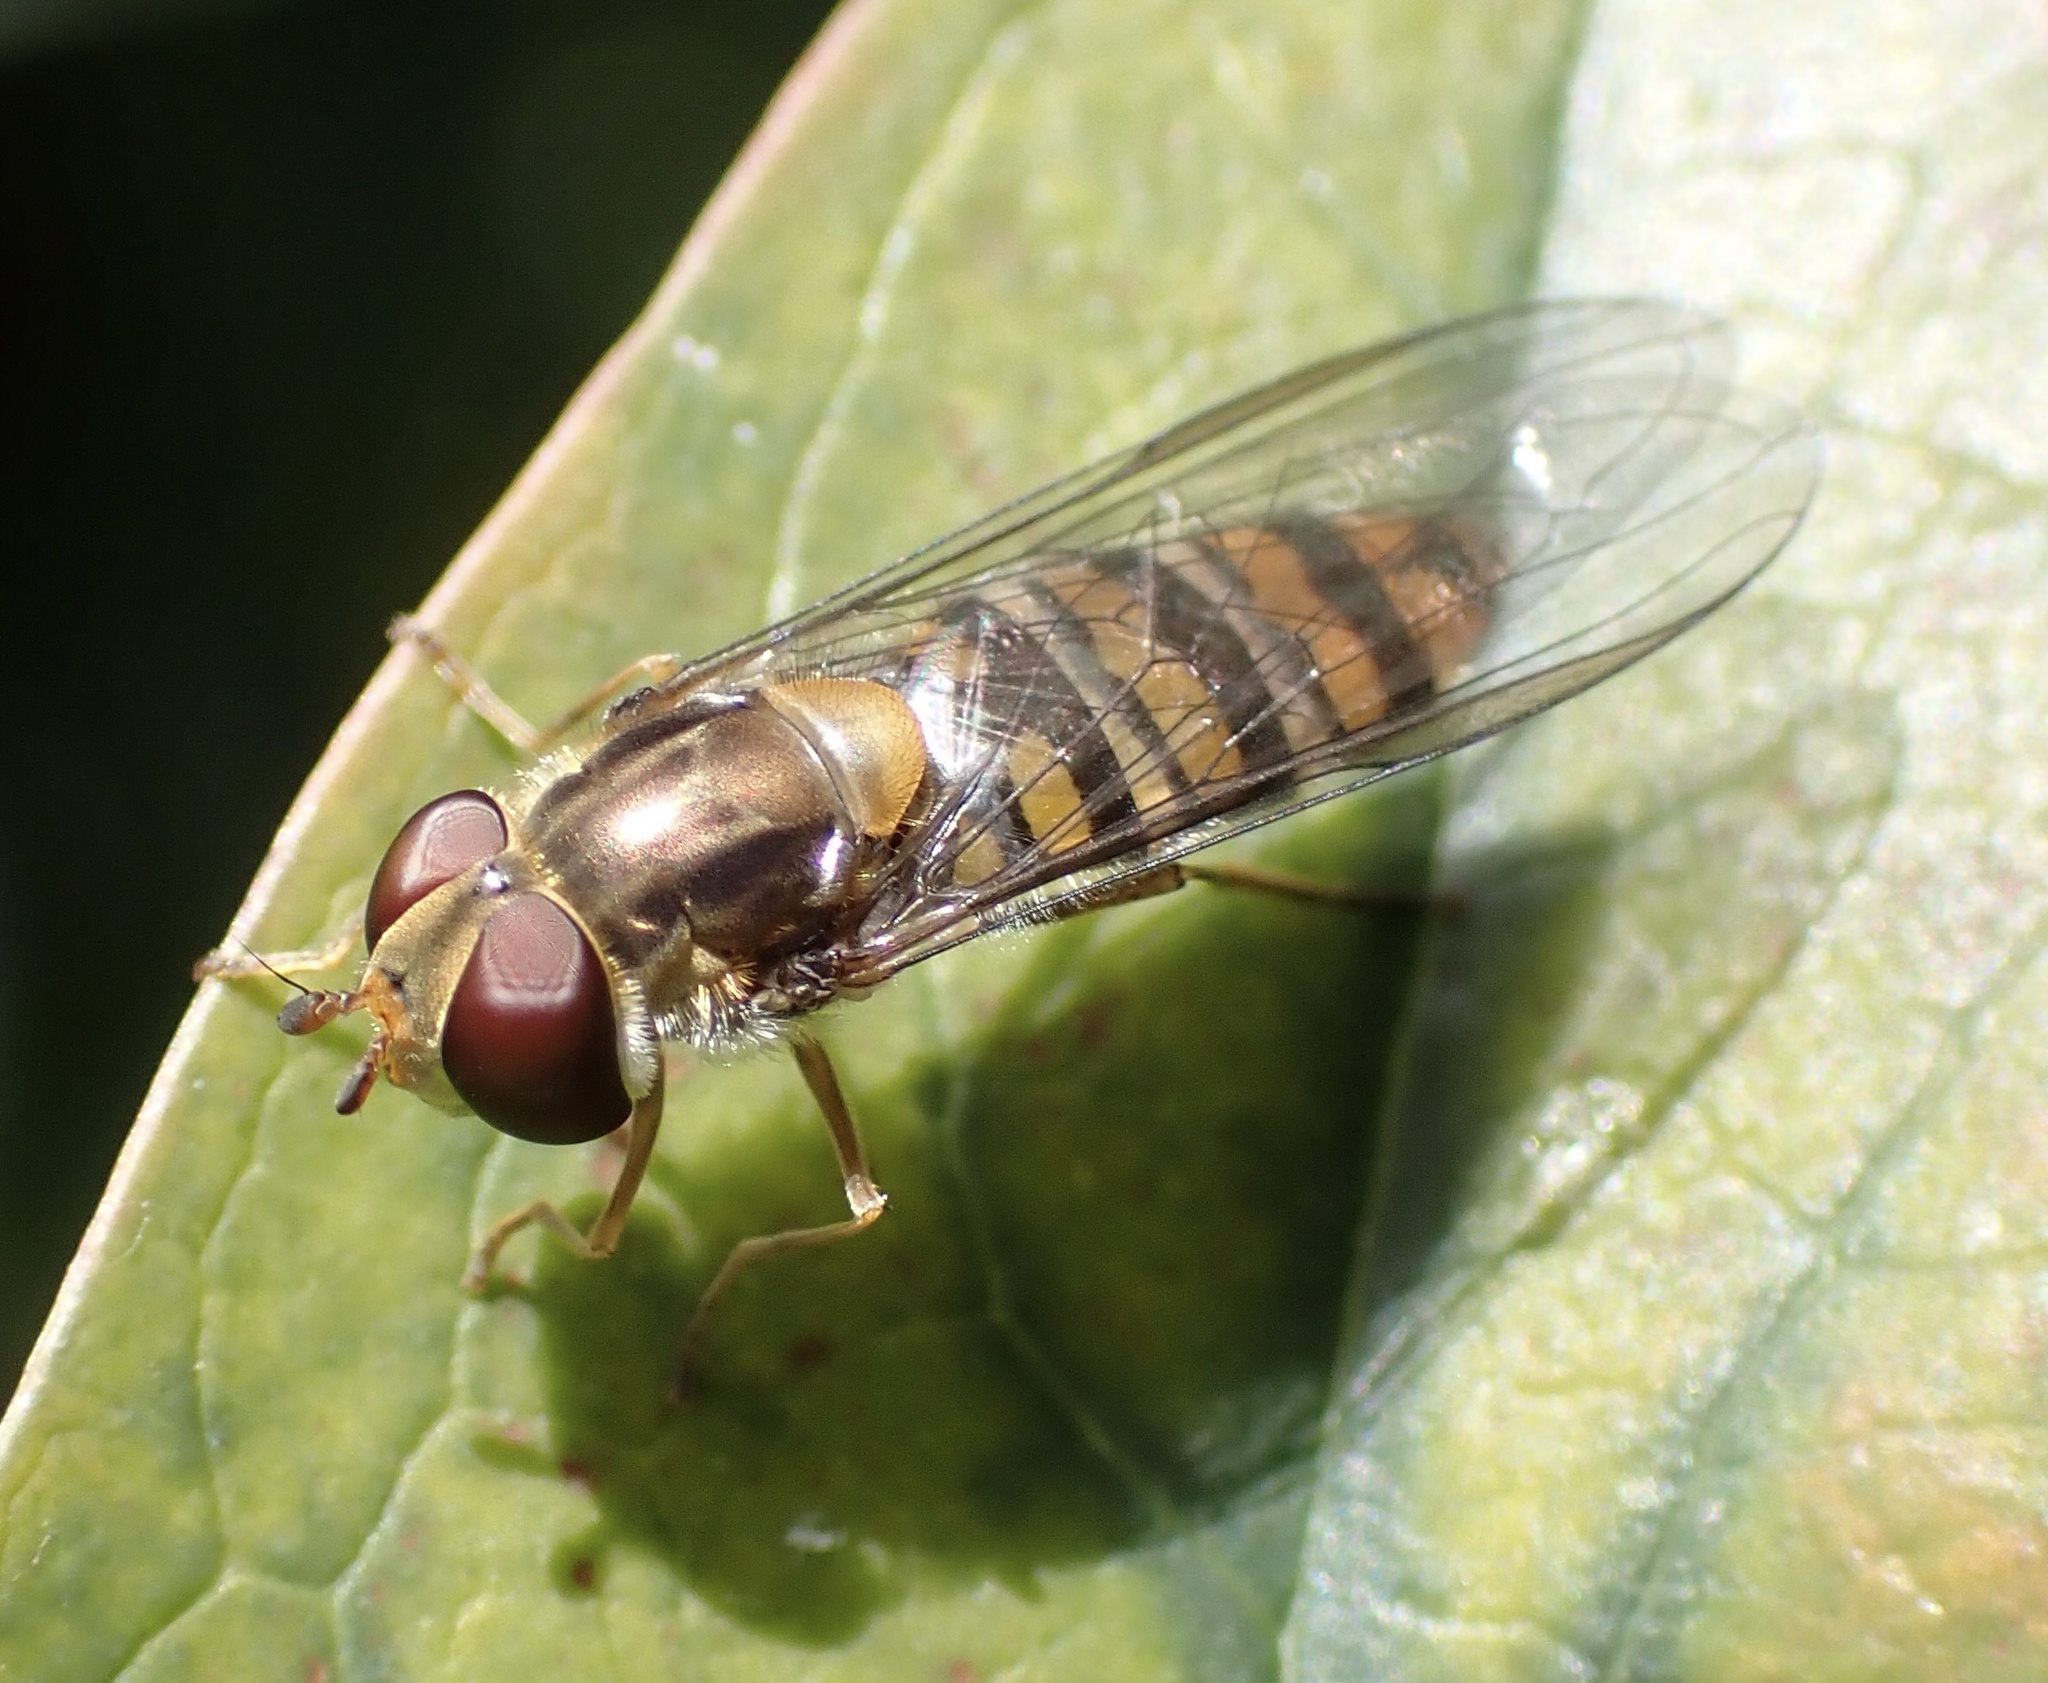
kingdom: Animalia
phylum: Arthropoda
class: Insecta
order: Diptera
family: Syrphidae
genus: Episyrphus
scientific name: Episyrphus balteatus
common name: Marmalade hoverfly
